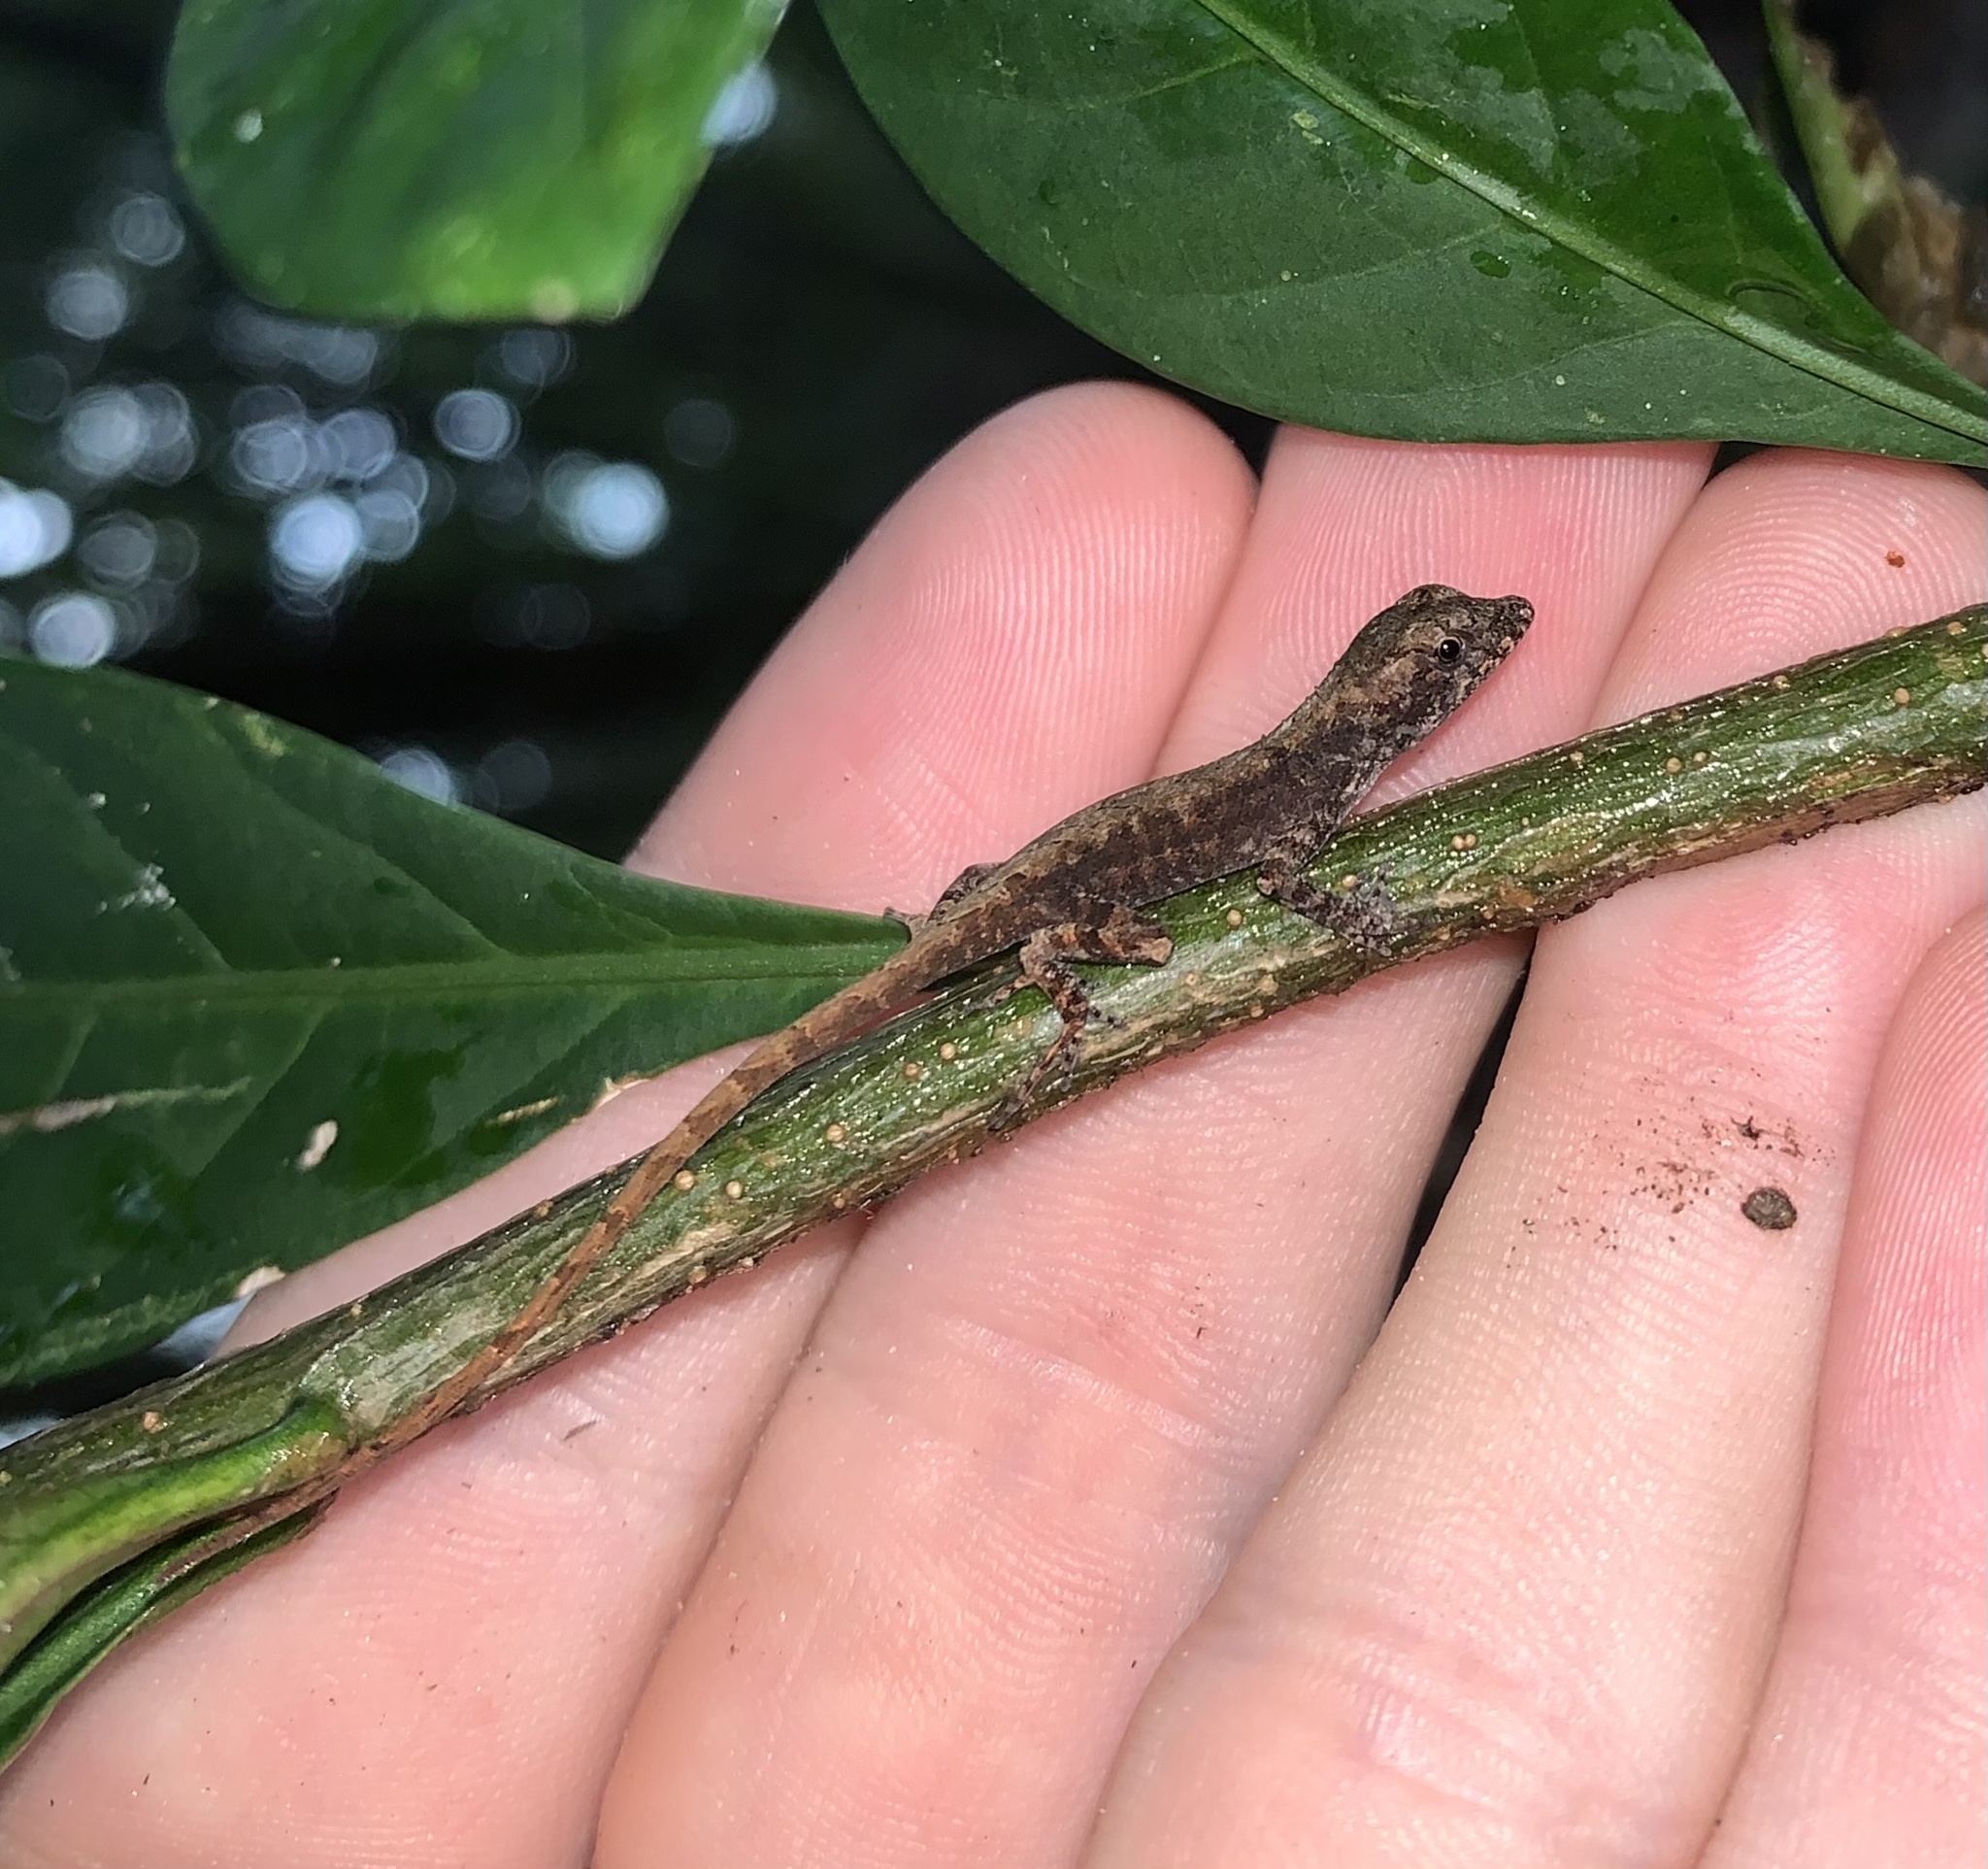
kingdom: Animalia
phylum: Chordata
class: Squamata
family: Dactyloidae
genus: Anolis
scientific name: Anolis sagrei
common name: Brown anole
